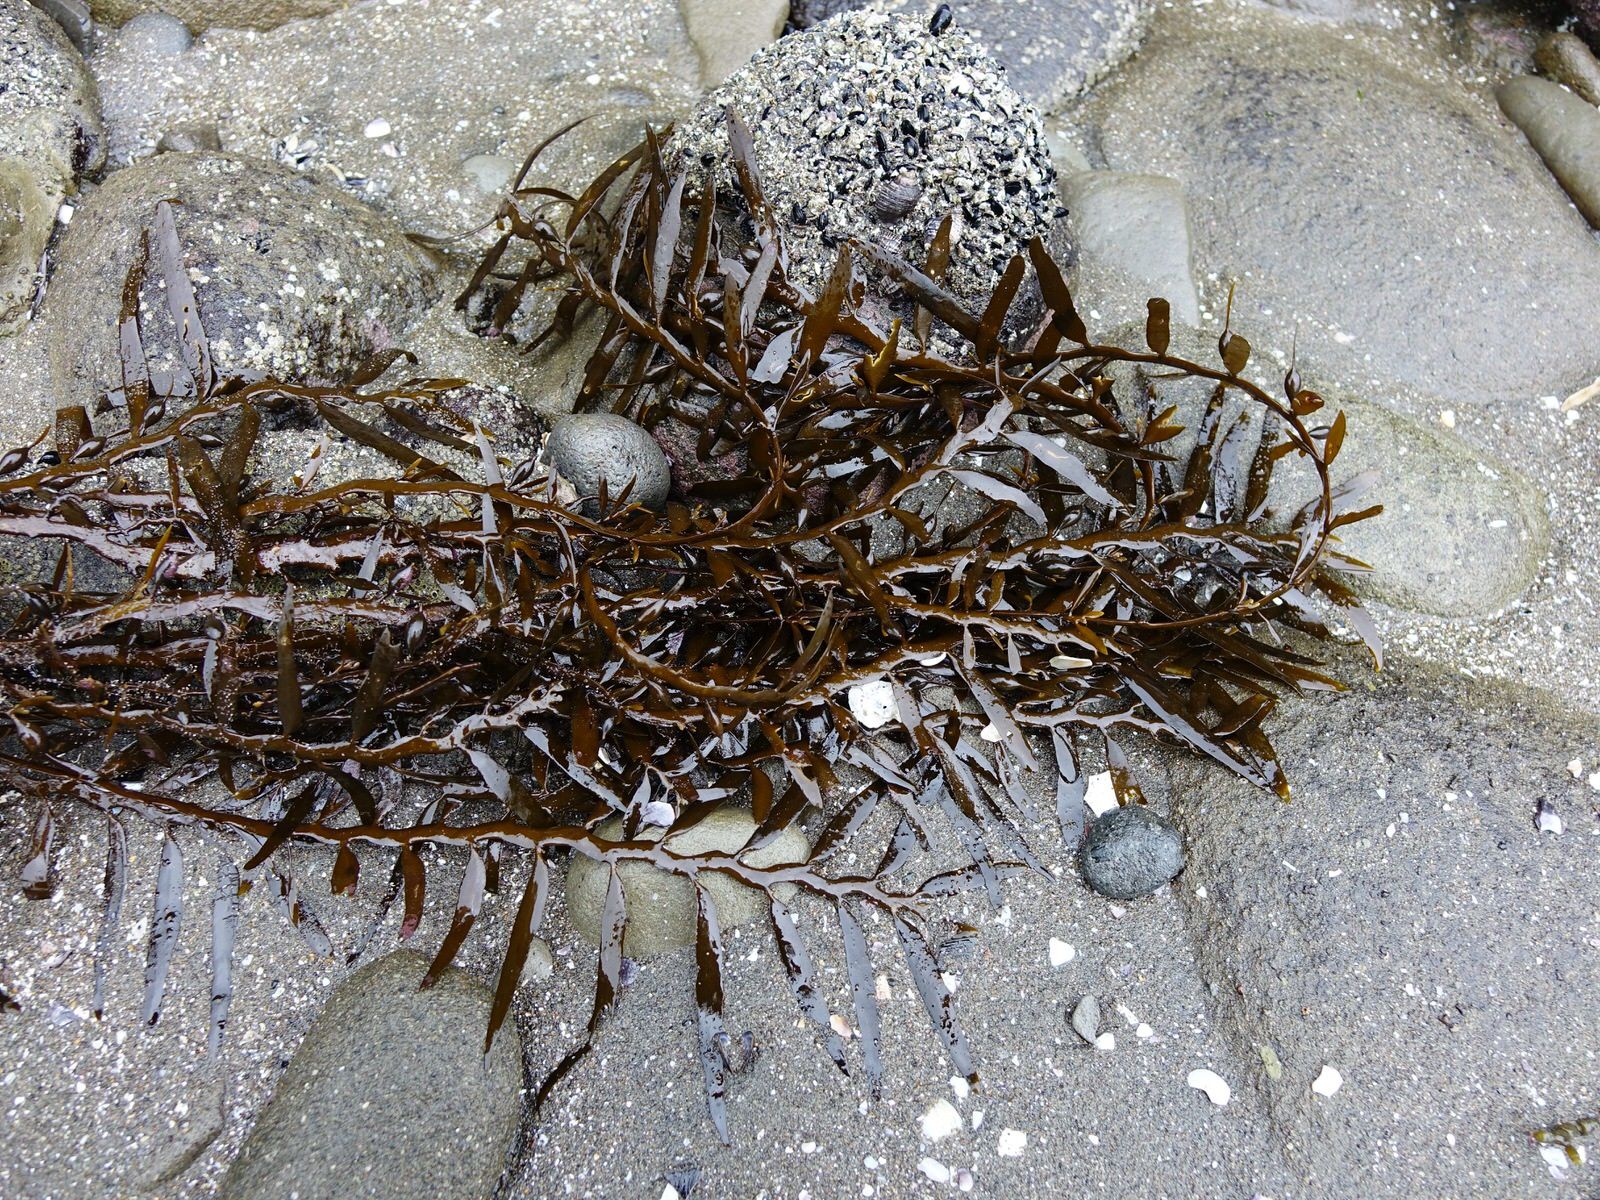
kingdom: Chromista
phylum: Ochrophyta
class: Phaeophyceae
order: Fucales
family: Sargassaceae
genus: Carpophyllum
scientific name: Carpophyllum maschalocarpum
